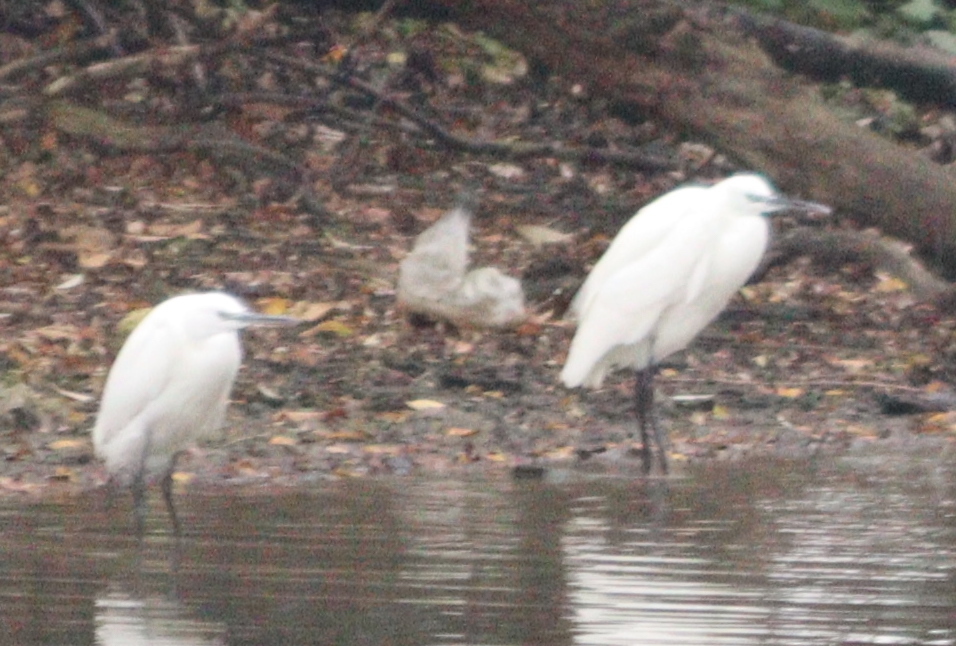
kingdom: Animalia
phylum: Chordata
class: Aves
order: Pelecaniformes
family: Ardeidae
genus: Egretta
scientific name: Egretta garzetta
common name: Little egret
